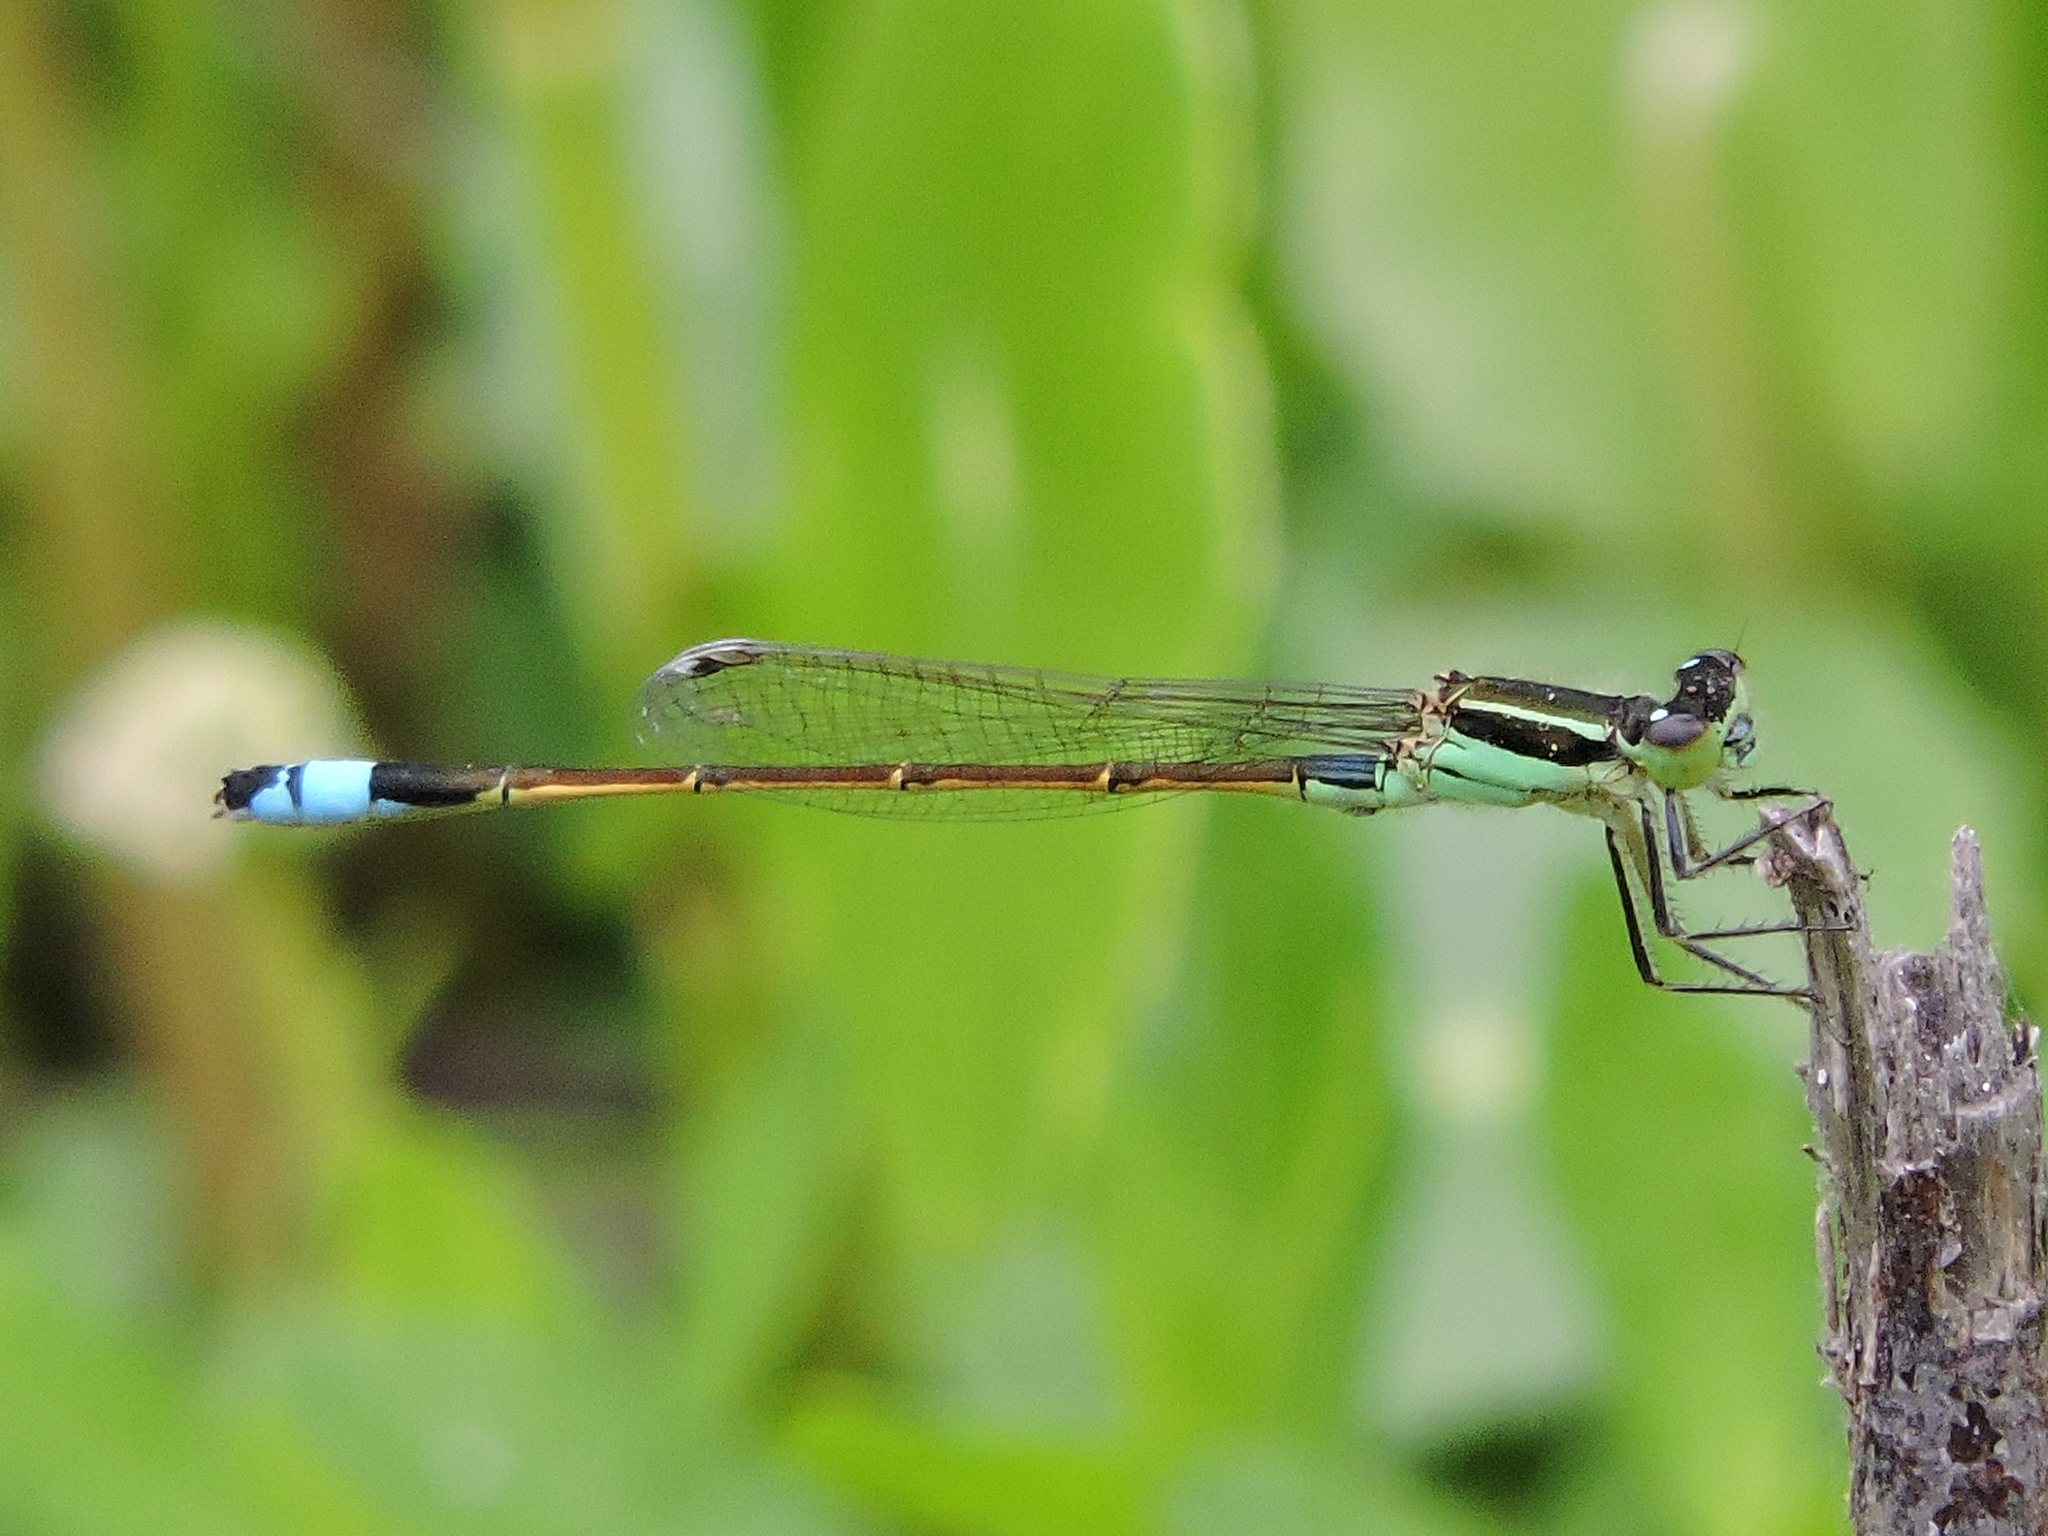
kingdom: Animalia
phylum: Arthropoda
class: Insecta
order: Odonata
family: Coenagrionidae
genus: Ischnura
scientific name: Ischnura ramburii
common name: Rambur's forktail
